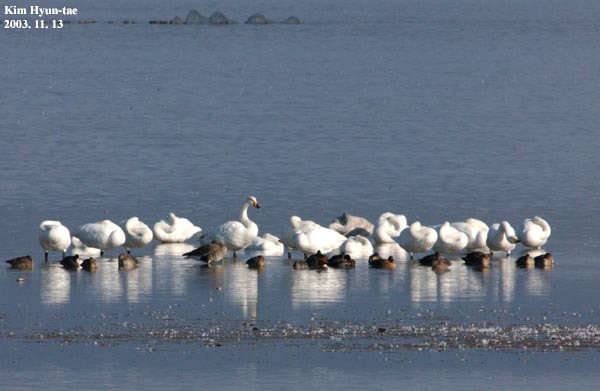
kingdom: Animalia
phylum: Chordata
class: Aves
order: Anseriformes
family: Anatidae
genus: Cygnus
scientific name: Cygnus cygnus
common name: Whooper swan
